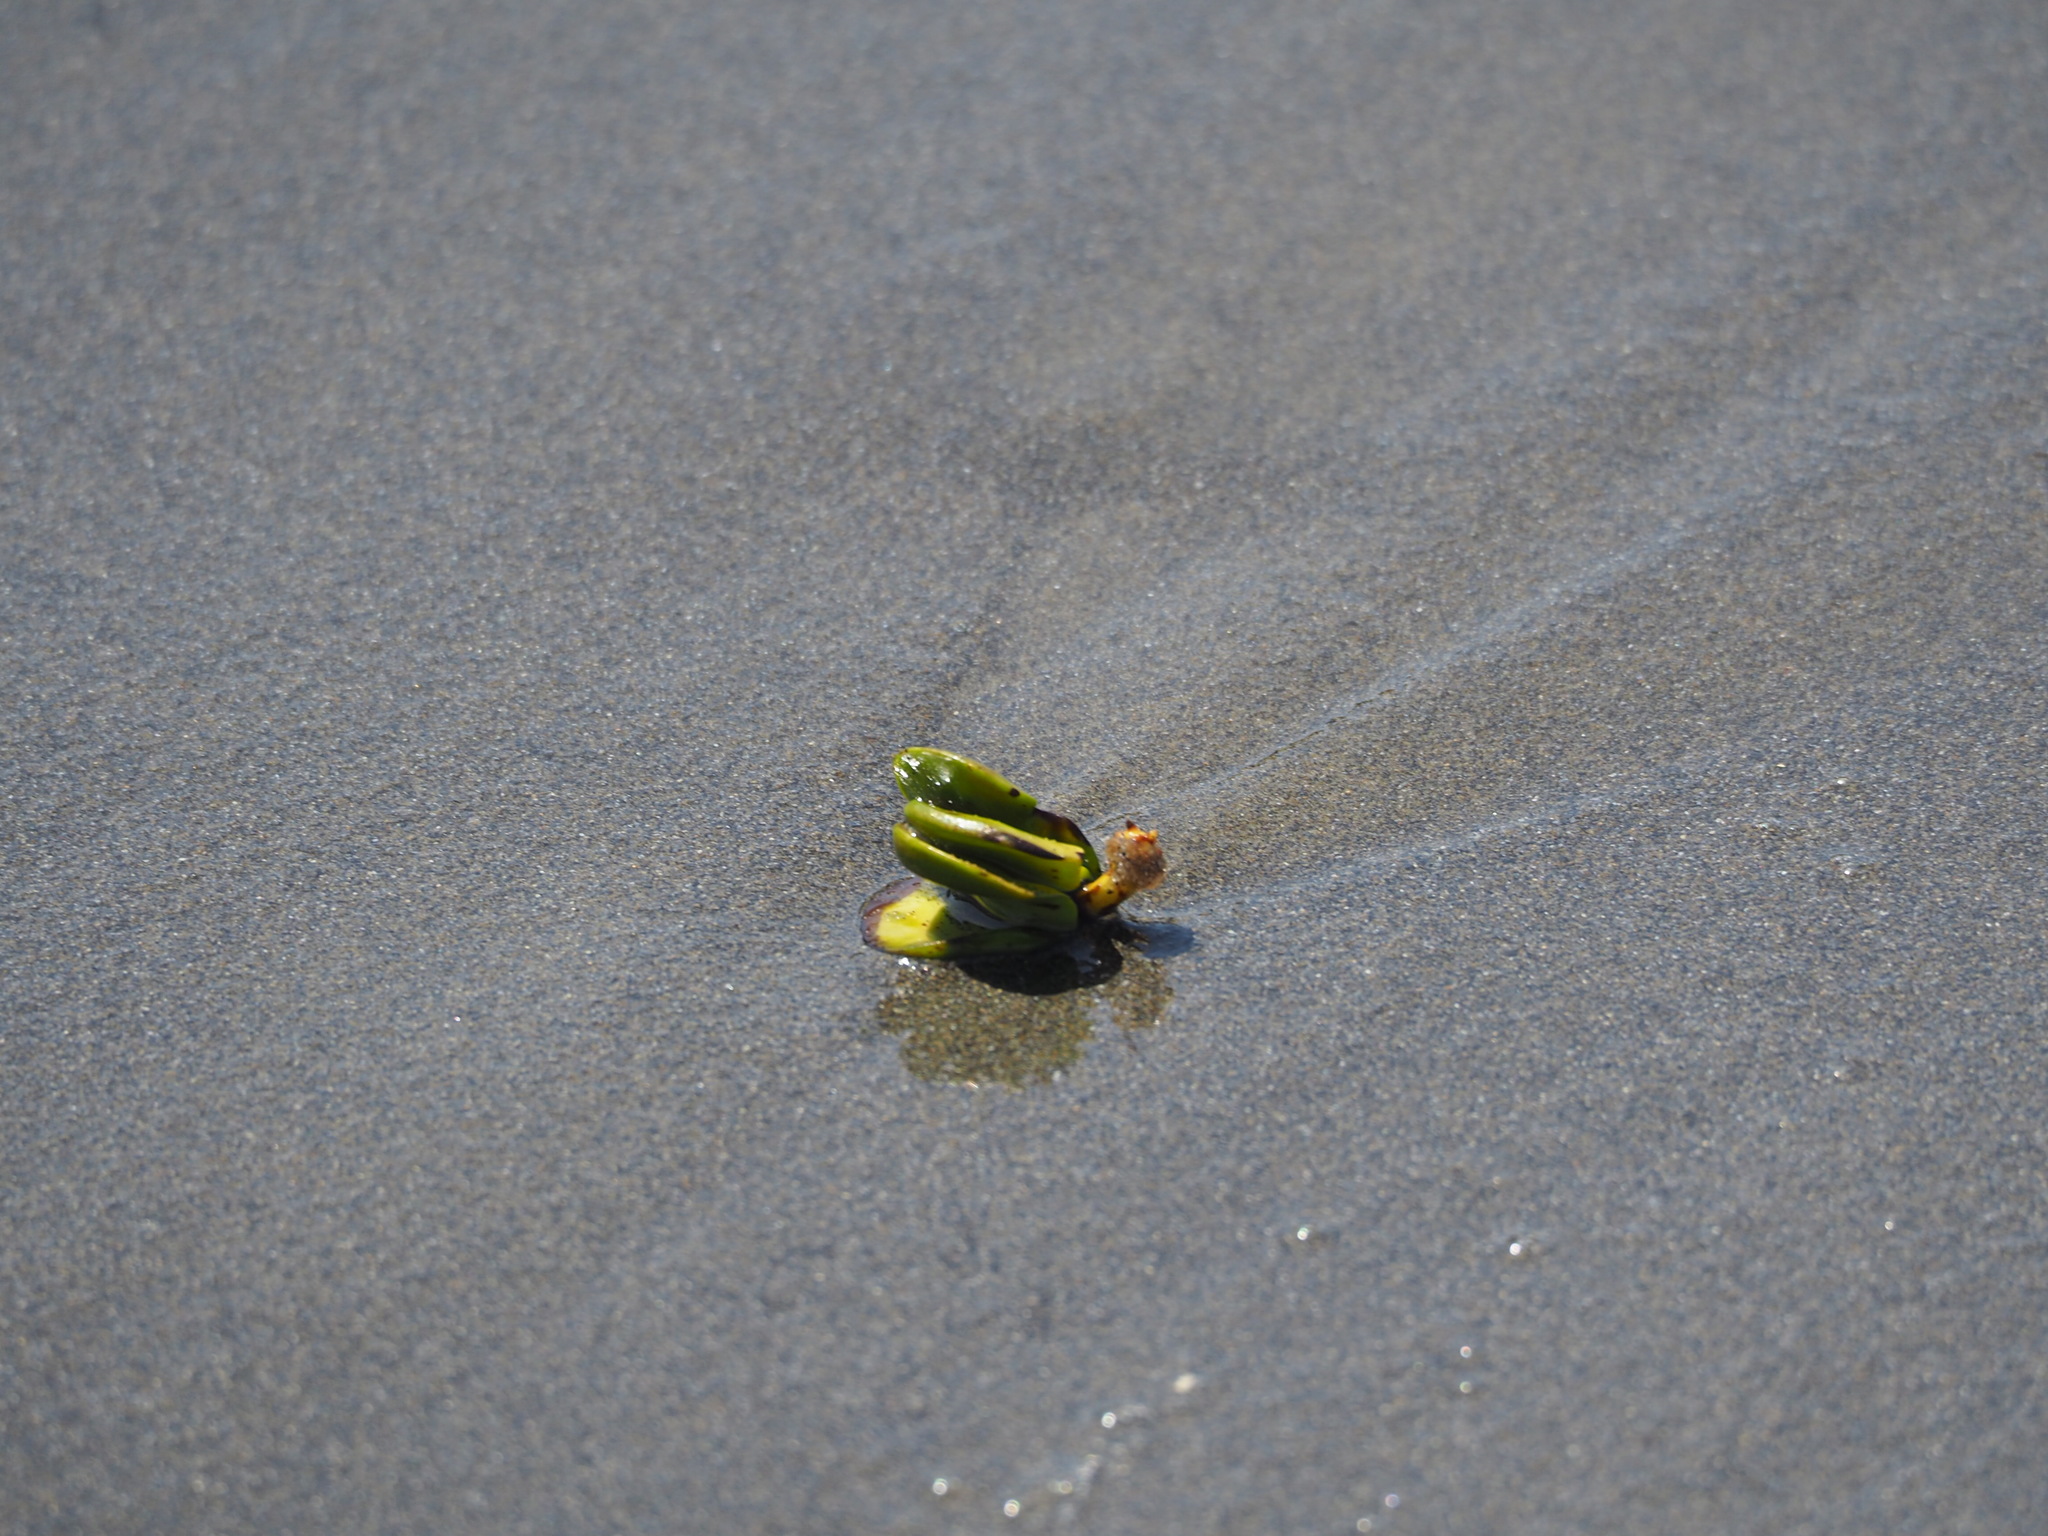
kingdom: Plantae
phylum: Tracheophyta
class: Magnoliopsida
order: Lamiales
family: Acanthaceae
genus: Avicennia
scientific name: Avicennia marina
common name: Gray mangrove
